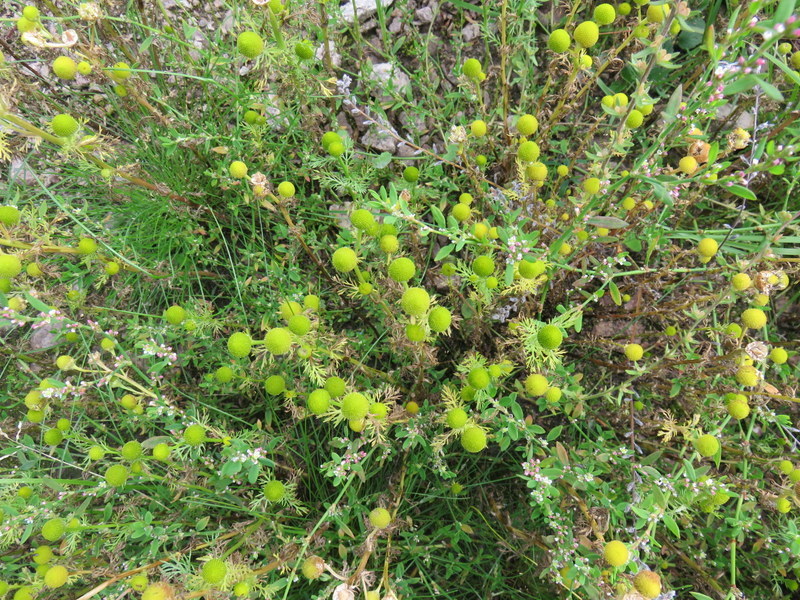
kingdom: Plantae
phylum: Tracheophyta
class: Magnoliopsida
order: Asterales
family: Asteraceae
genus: Matricaria
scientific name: Matricaria discoidea
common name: Disc mayweed
